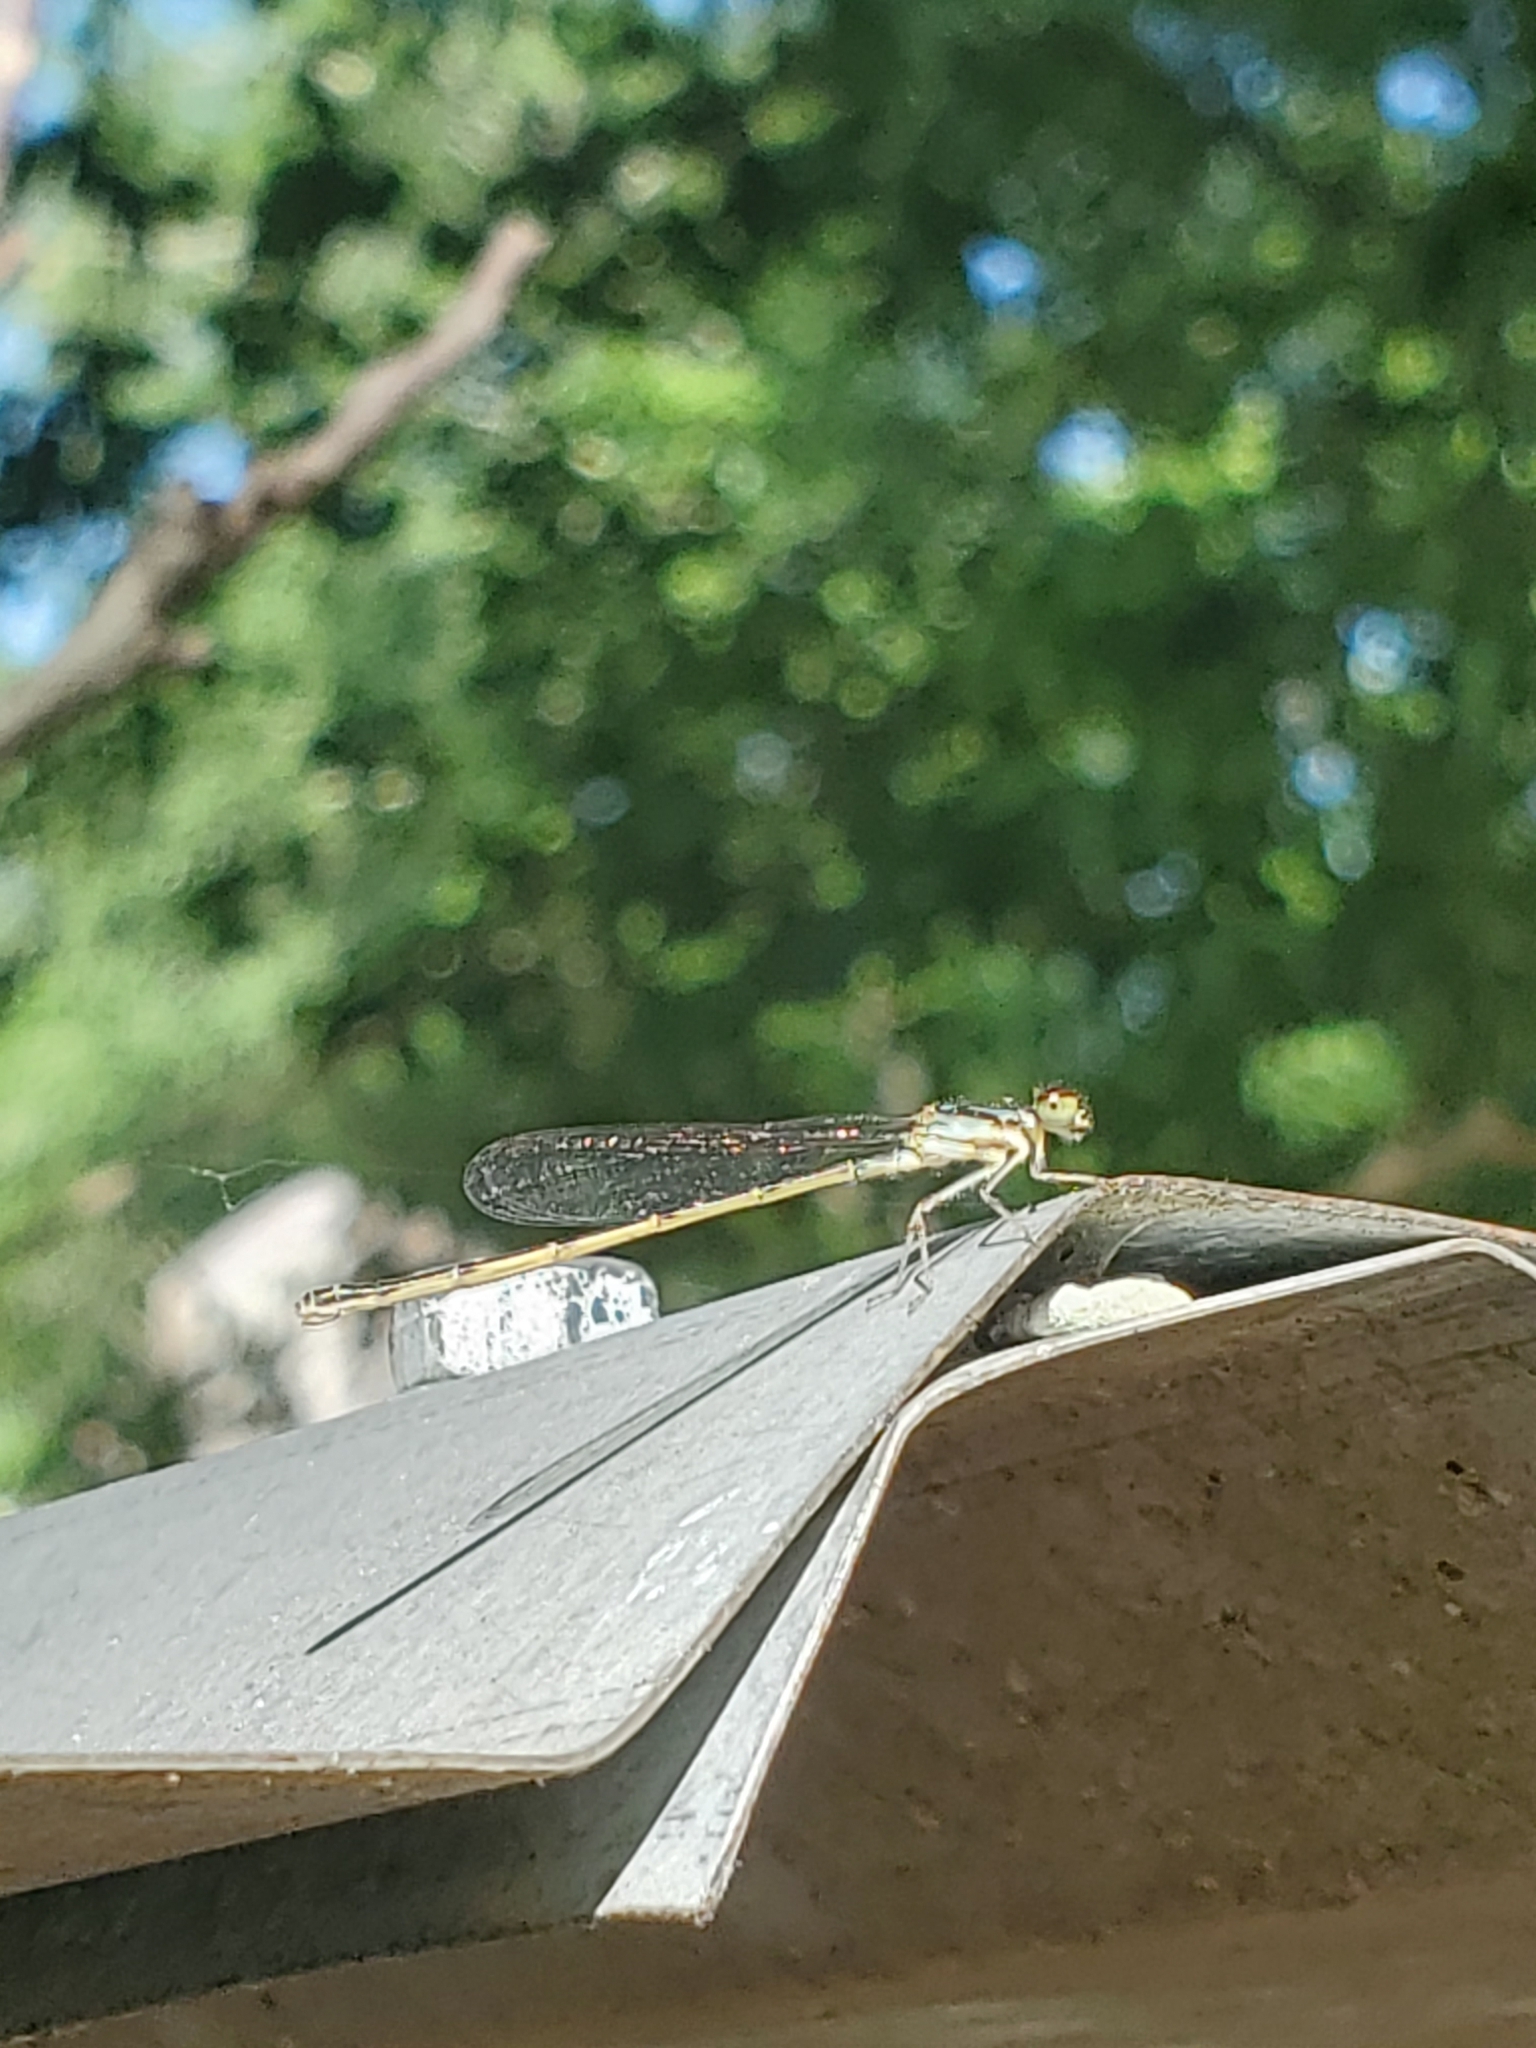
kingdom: Animalia
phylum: Arthropoda
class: Insecta
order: Odonata
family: Coenagrionidae
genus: Ischnura
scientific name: Ischnura posita
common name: Fragile forktail
